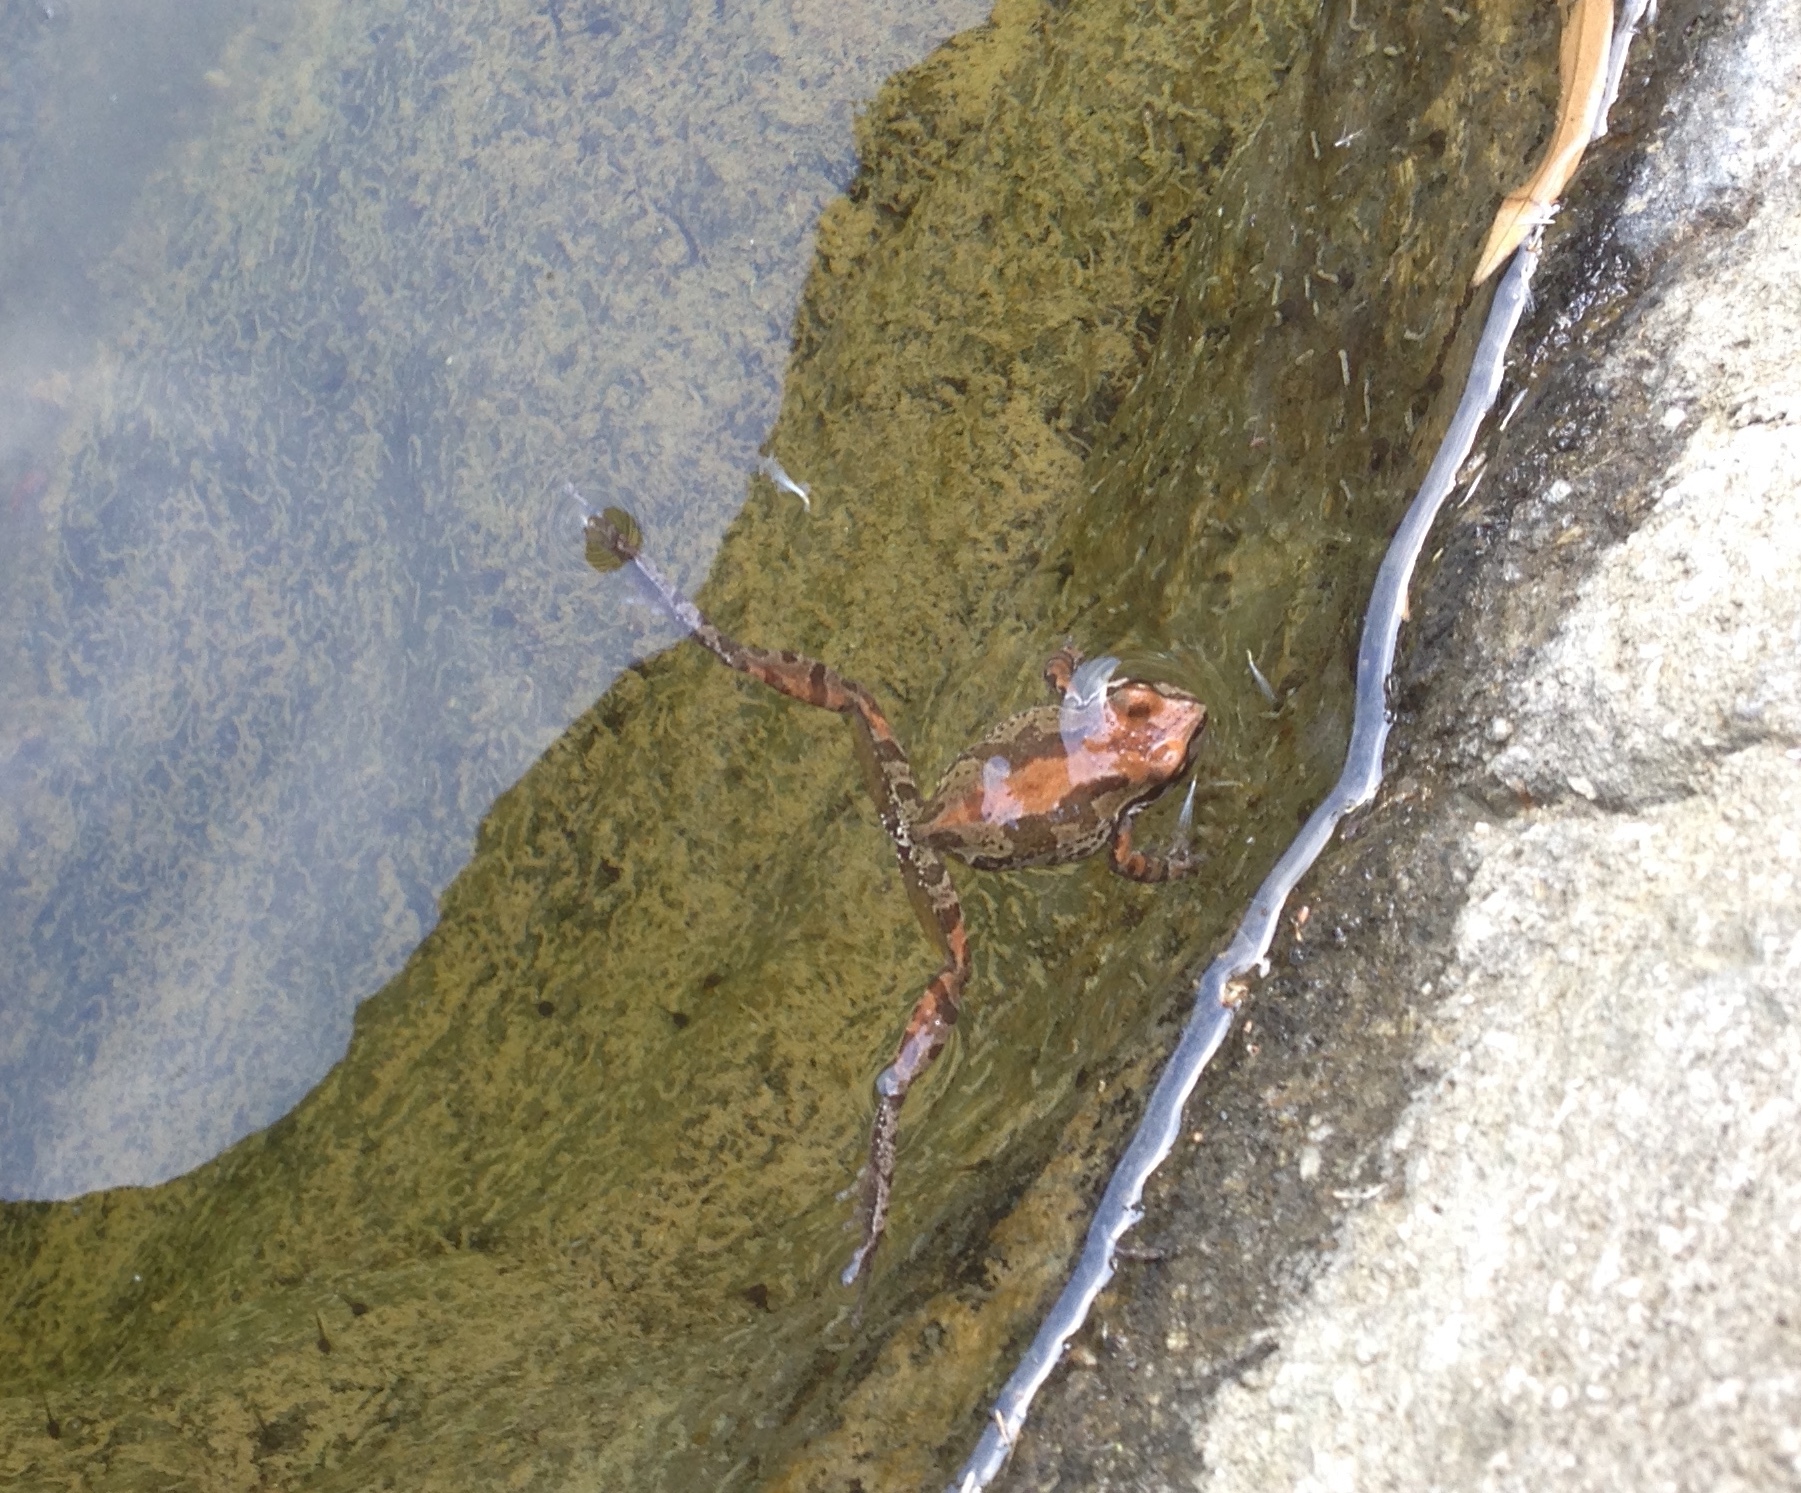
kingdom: Animalia
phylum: Chordata
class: Amphibia
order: Anura
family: Hylidae
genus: Pseudacris
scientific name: Pseudacris regilla
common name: Pacific chorus frog
